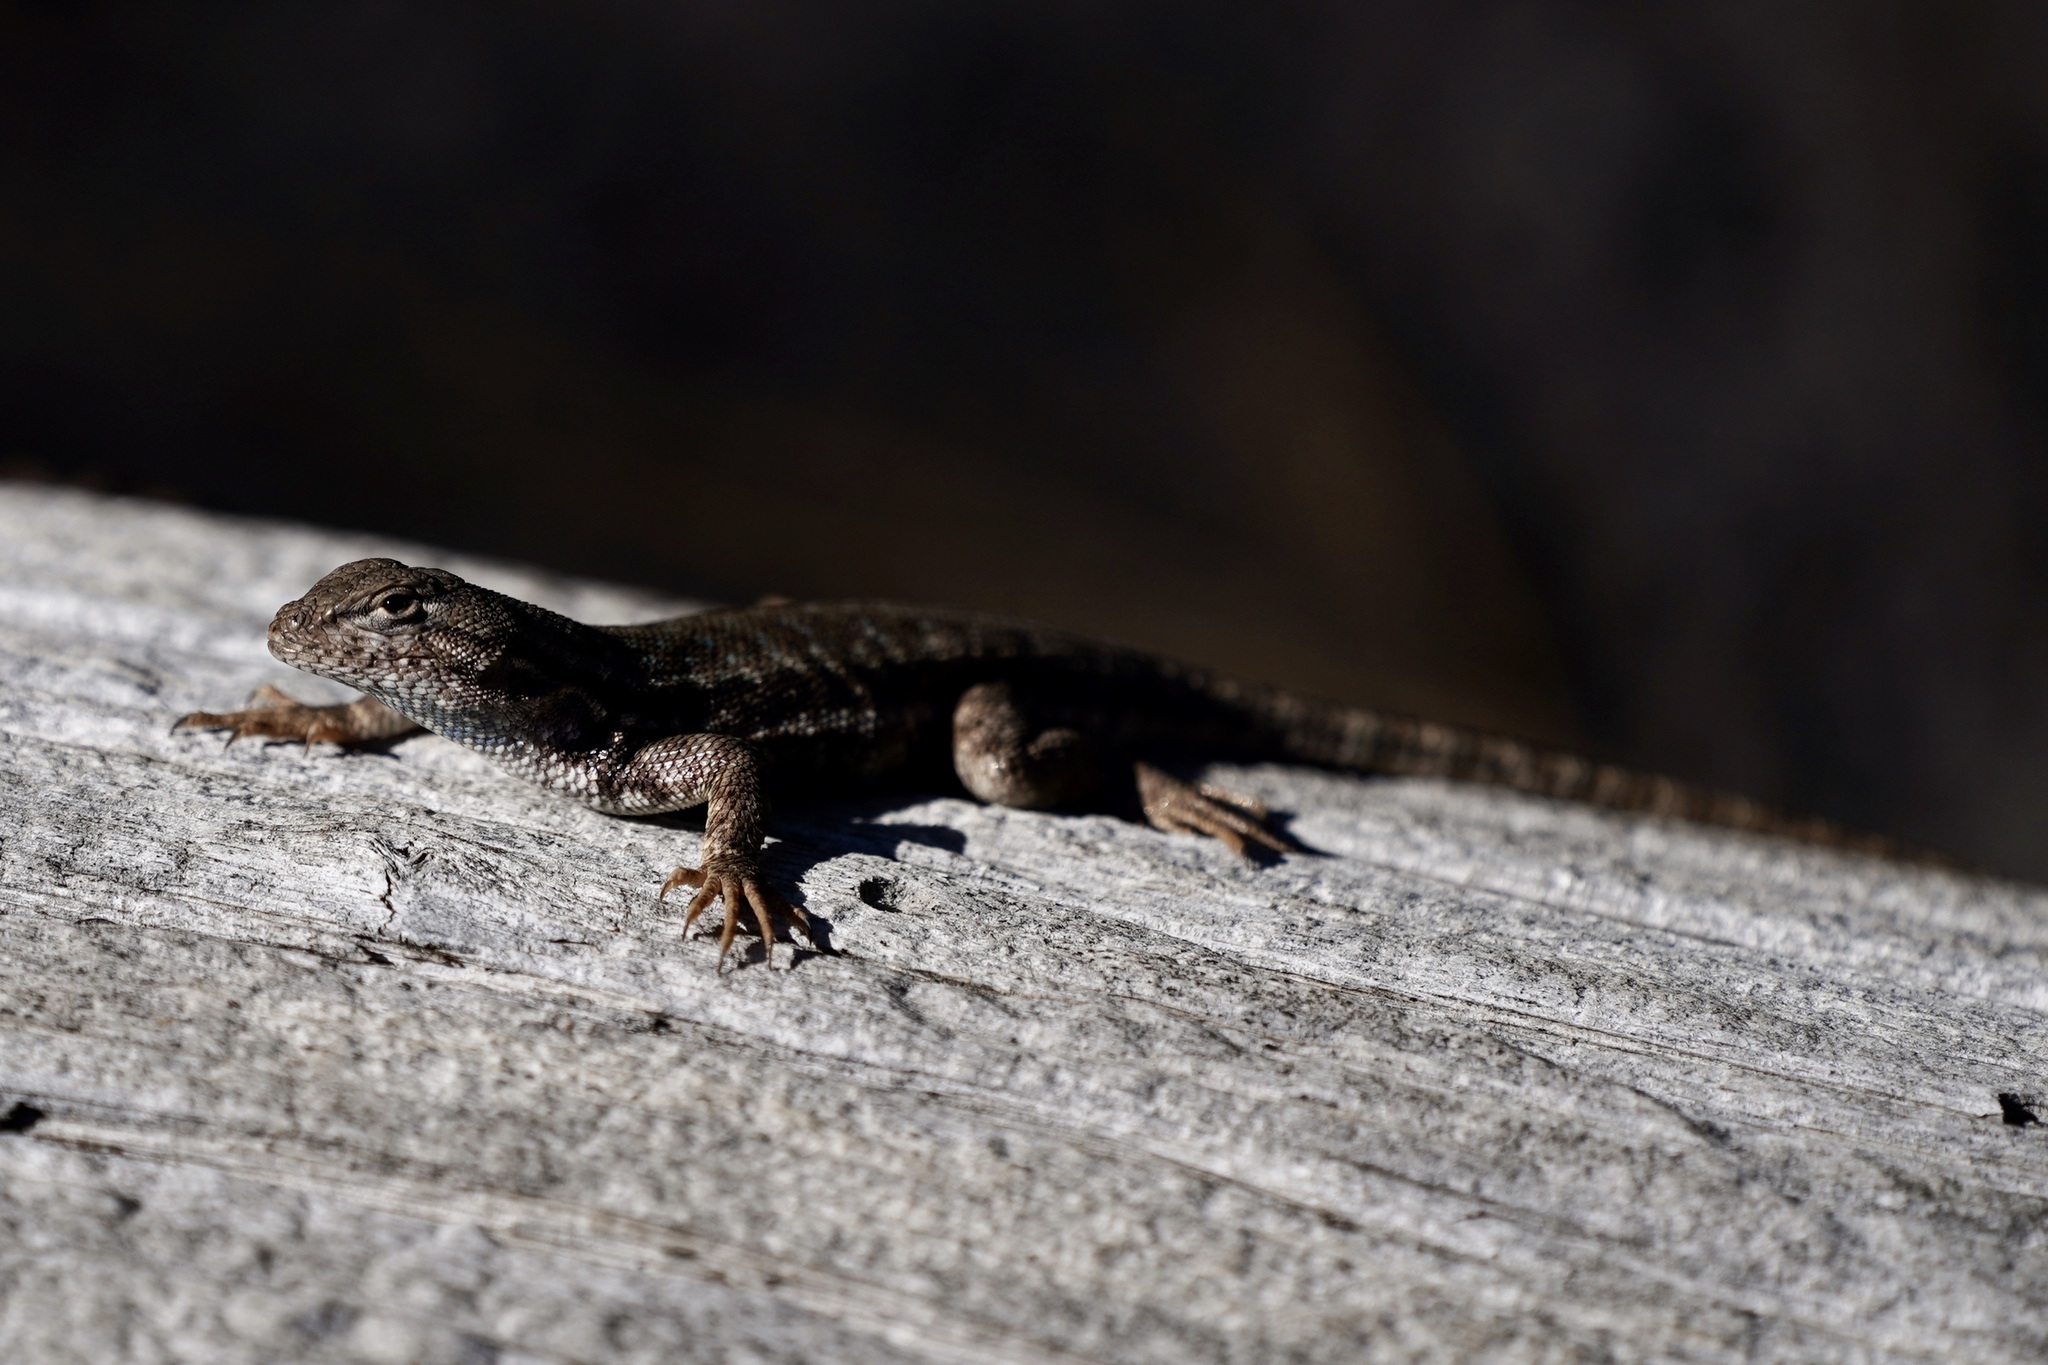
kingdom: Animalia
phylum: Chordata
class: Squamata
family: Phrynosomatidae
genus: Sceloporus
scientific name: Sceloporus graciosus
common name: Sagebrush lizard
